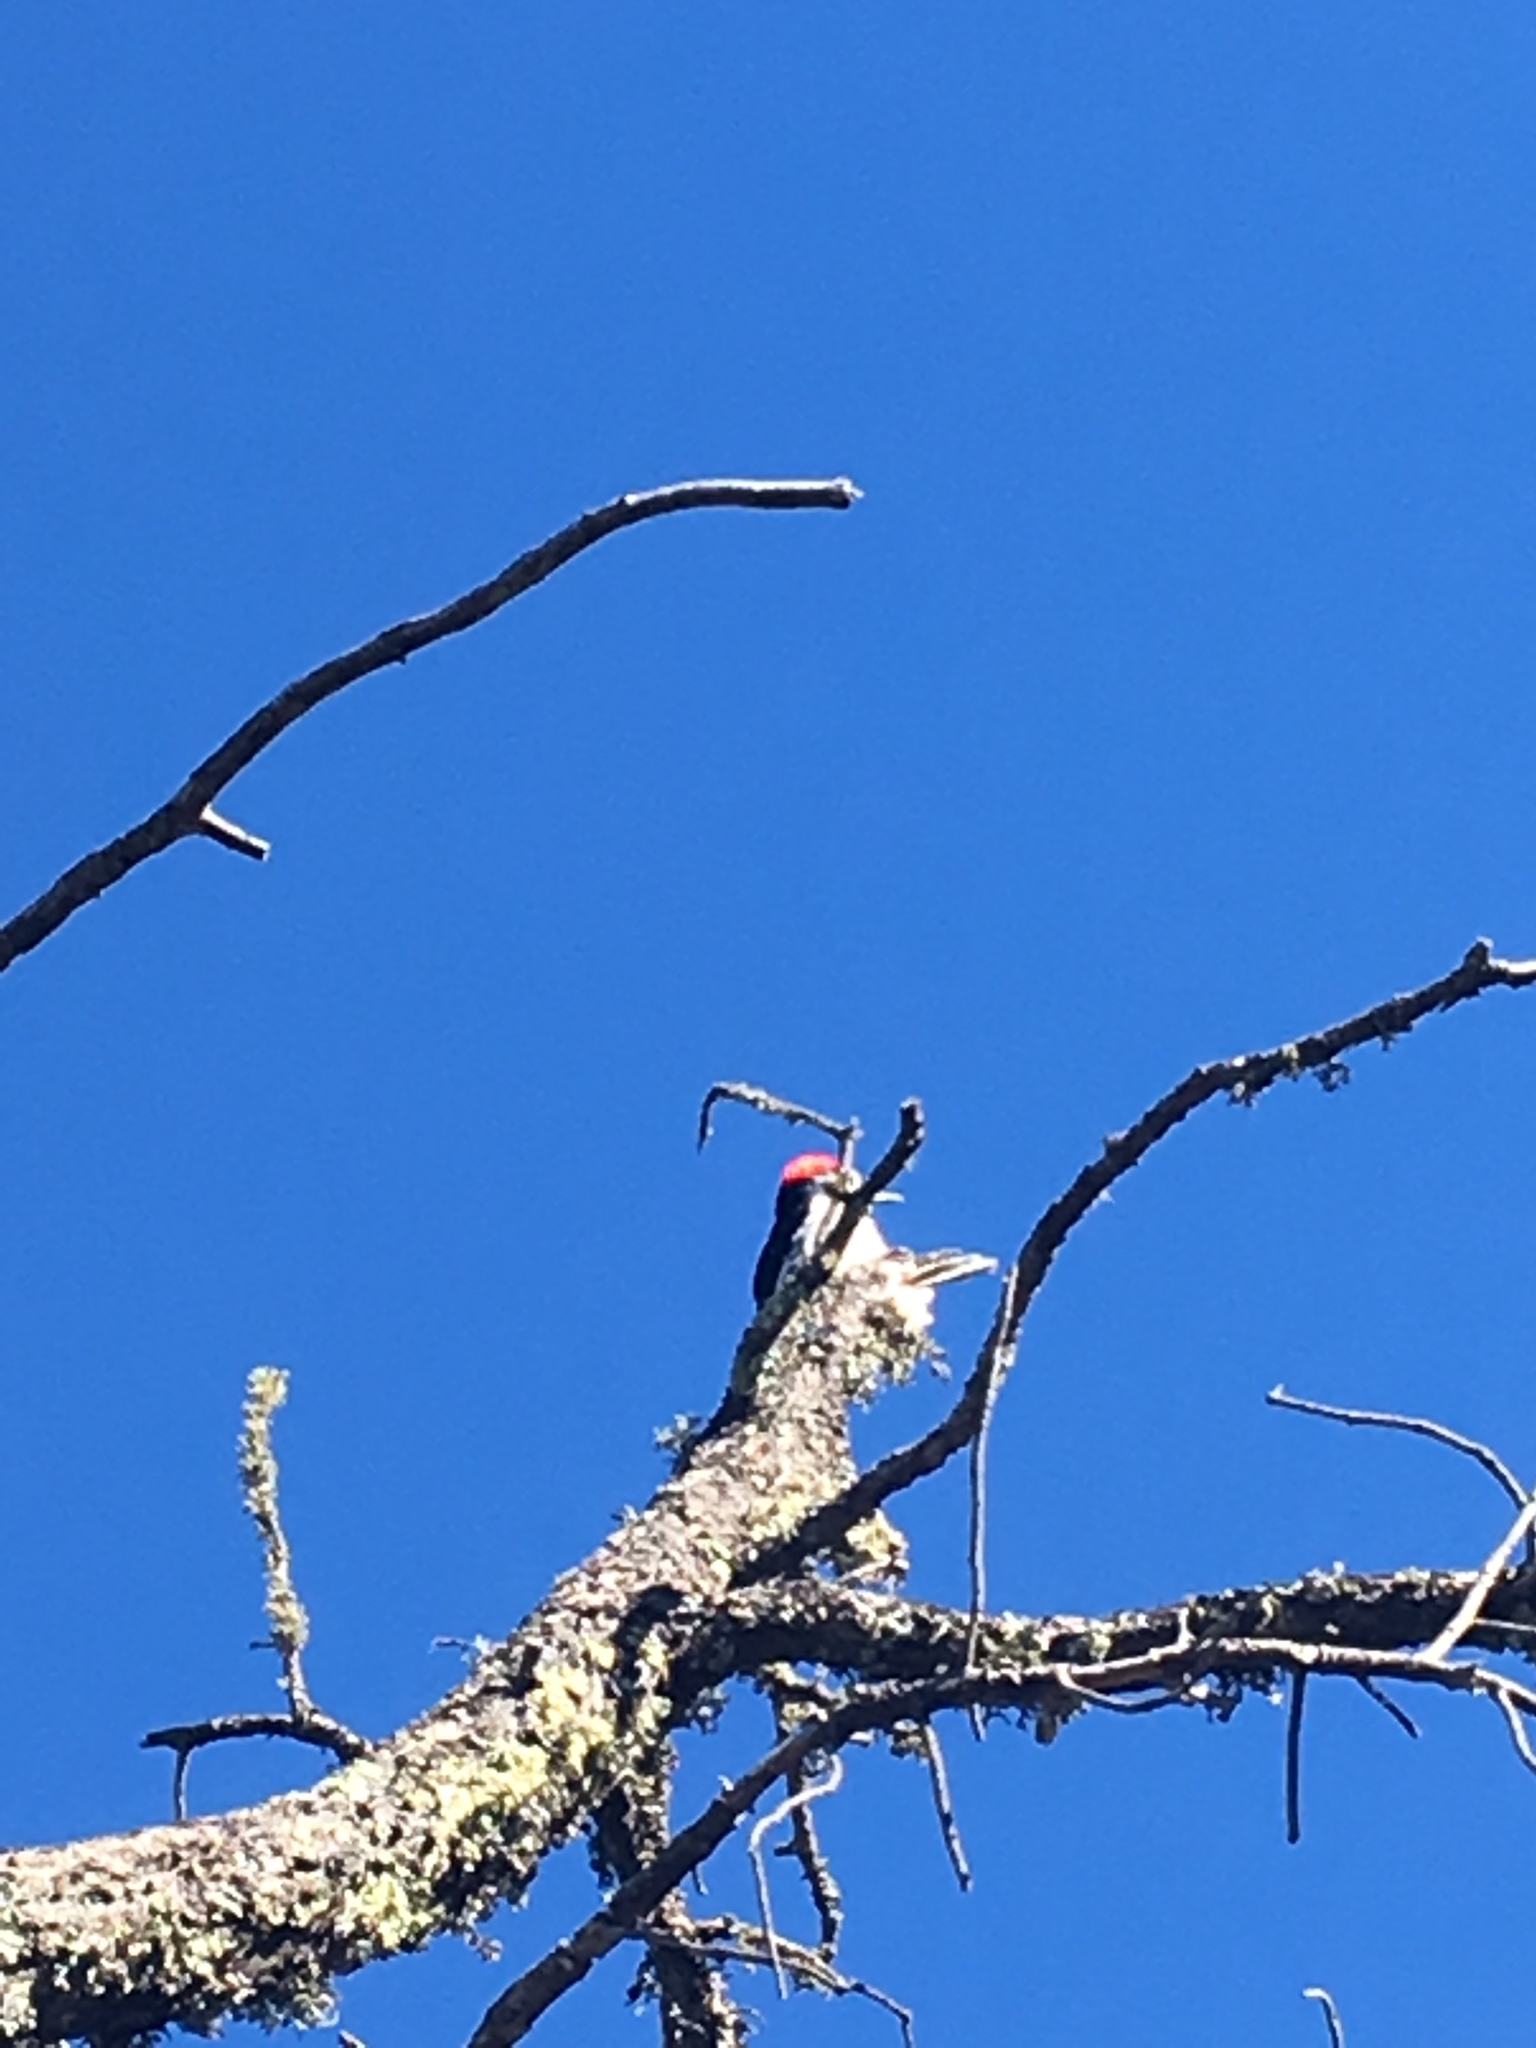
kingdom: Animalia
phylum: Chordata
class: Aves
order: Piciformes
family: Picidae
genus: Melanerpes
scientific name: Melanerpes formicivorus
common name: Acorn woodpecker
